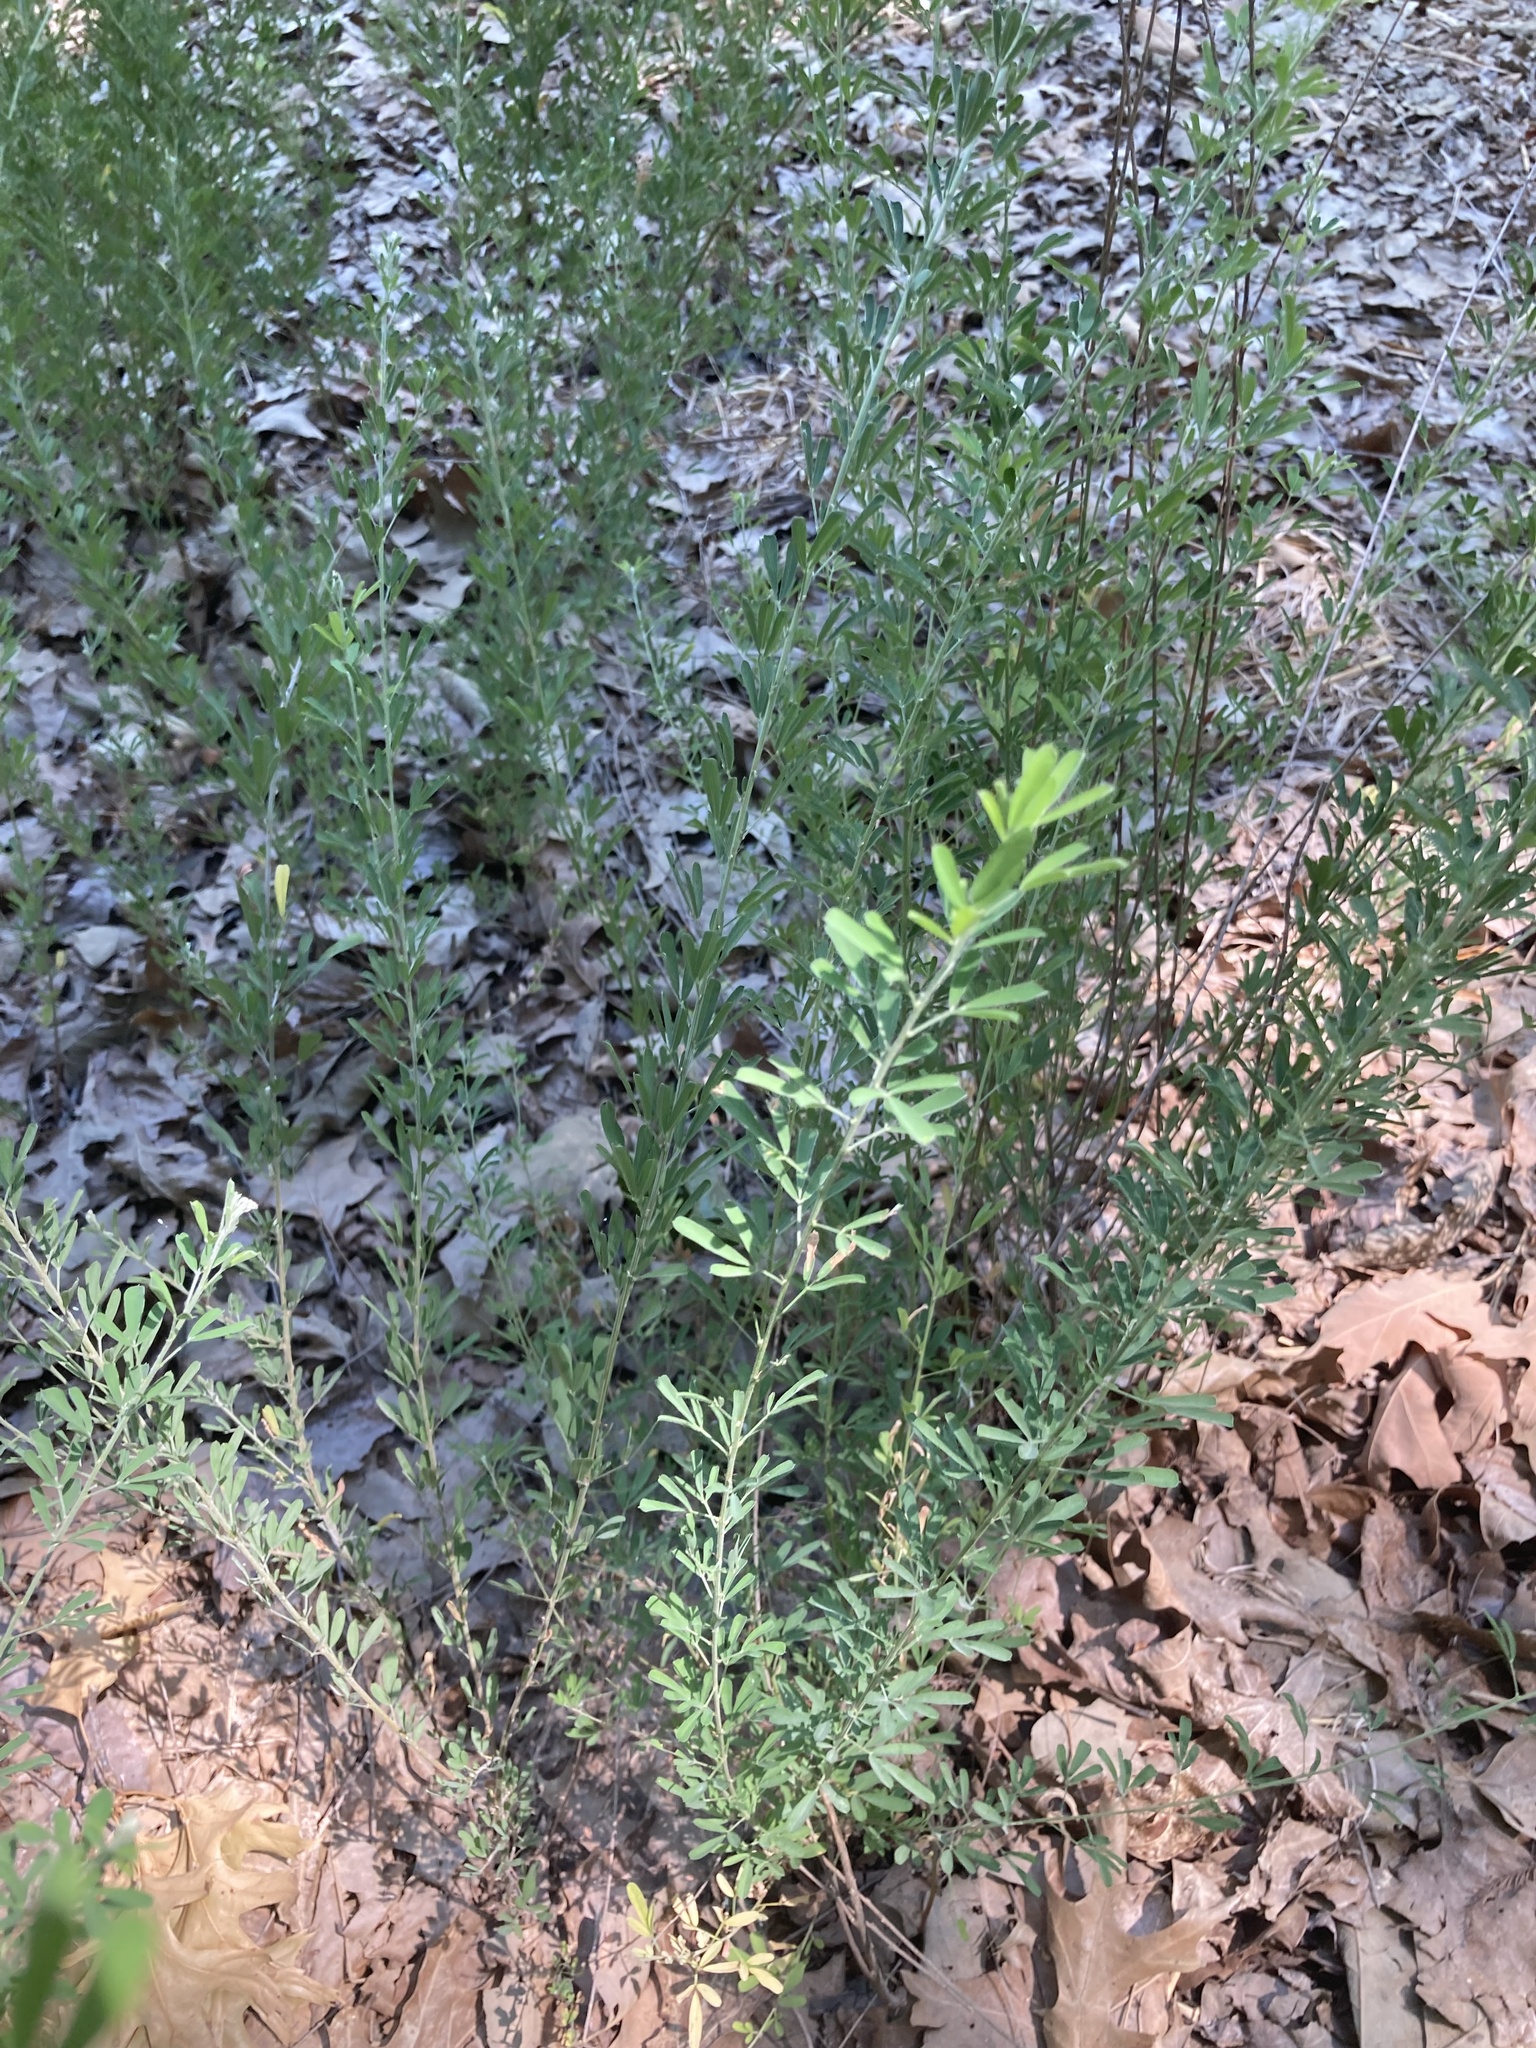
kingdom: Plantae
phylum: Tracheophyta
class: Magnoliopsida
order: Fabales
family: Fabaceae
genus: Lespedeza
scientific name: Lespedeza cuneata
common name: Chinese bush-clover
